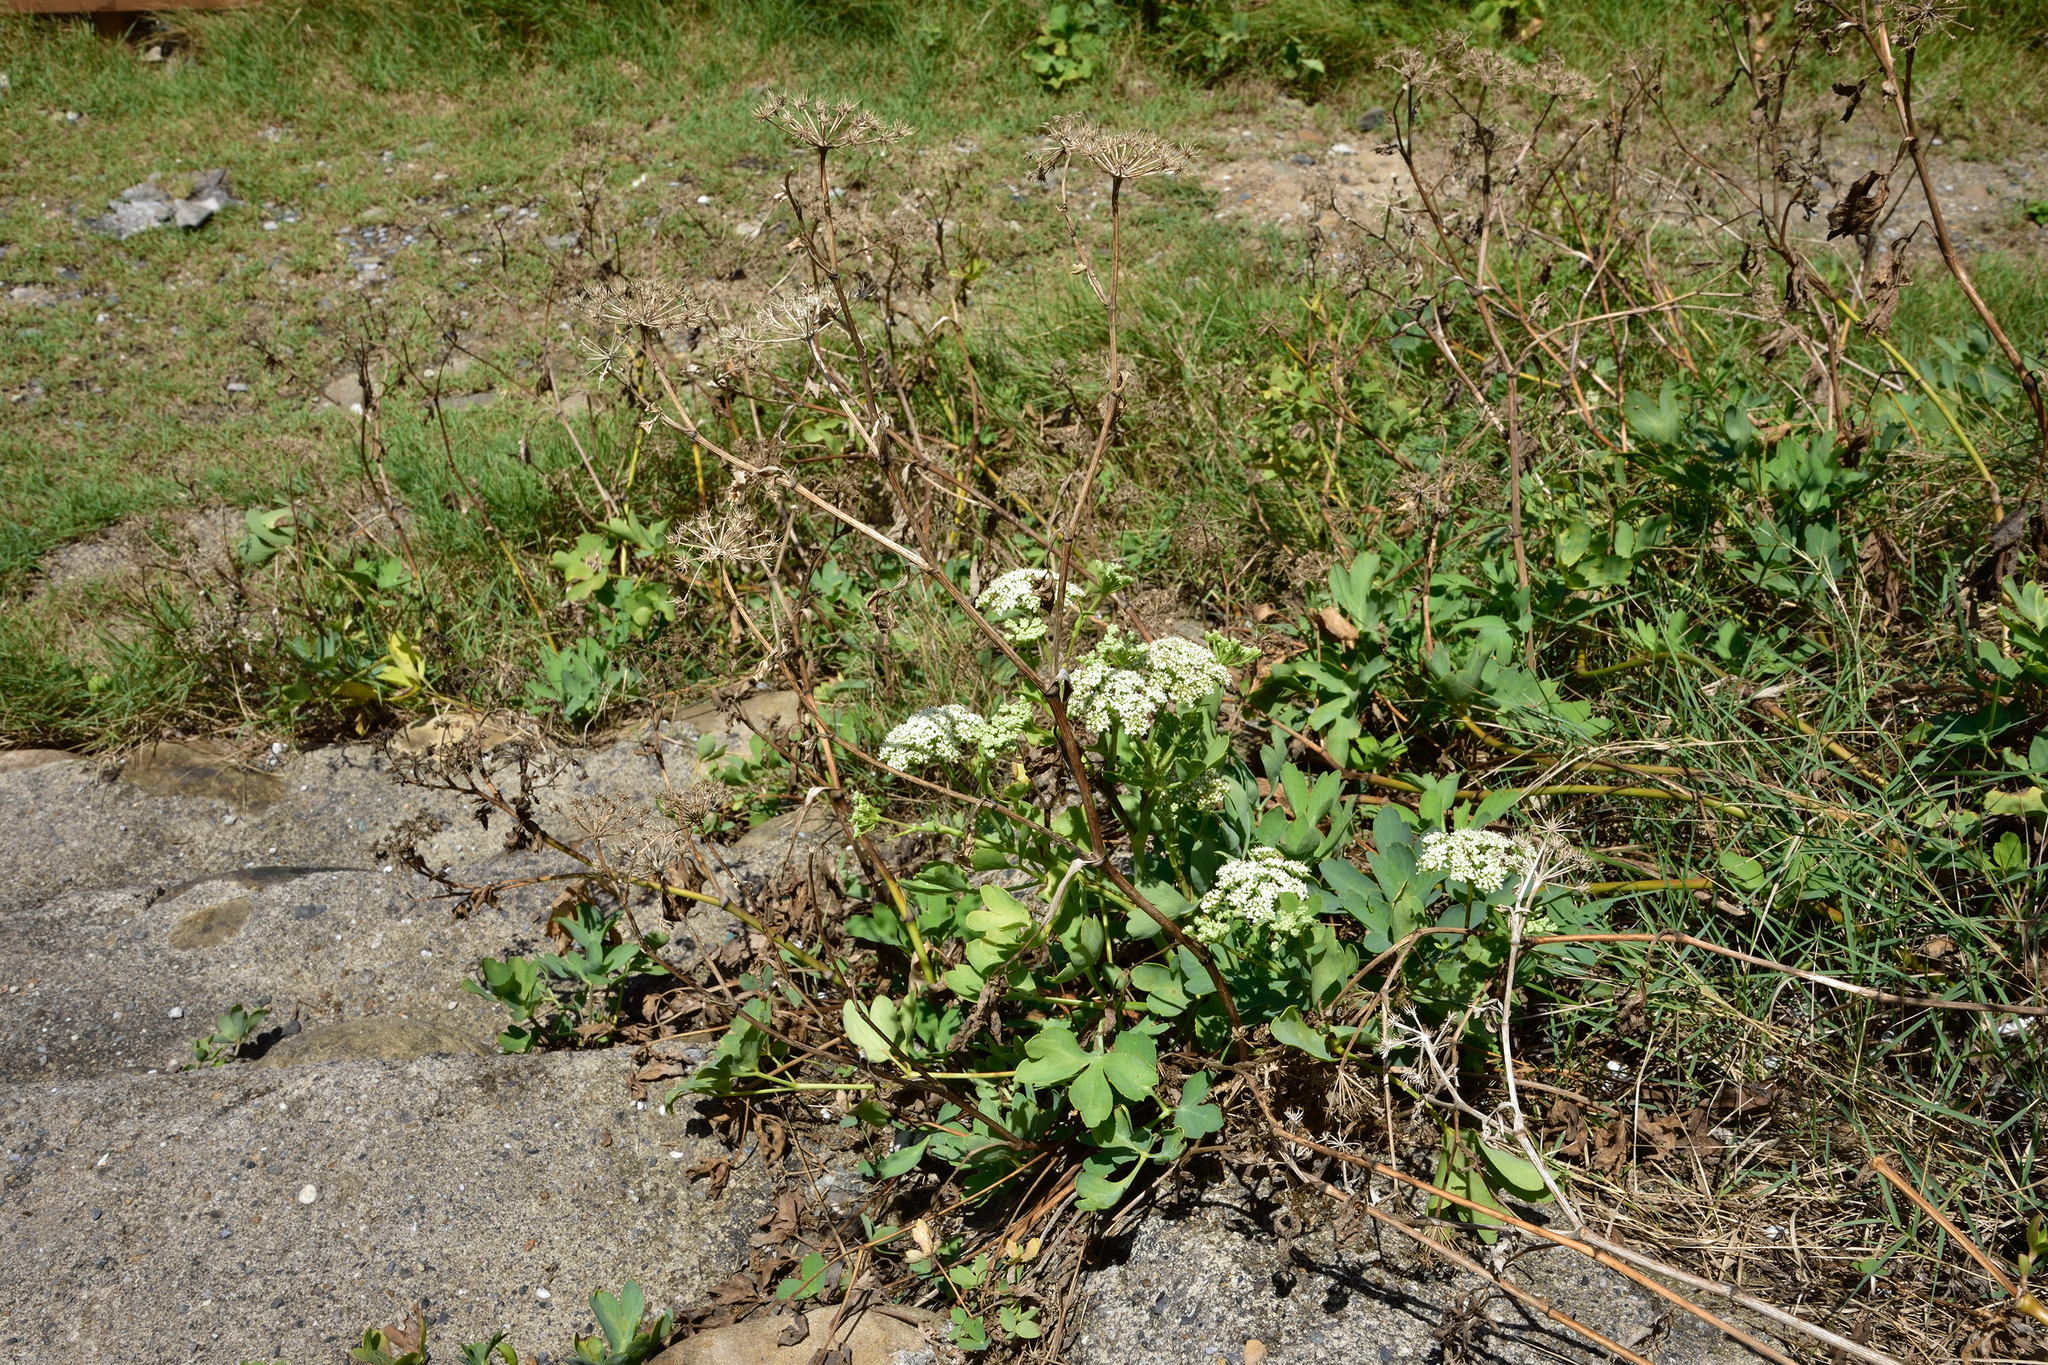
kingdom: Plantae
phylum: Tracheophyta
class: Magnoliopsida
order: Apiales
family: Apiaceae
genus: Peucedanum
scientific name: Peucedanum japonicum
